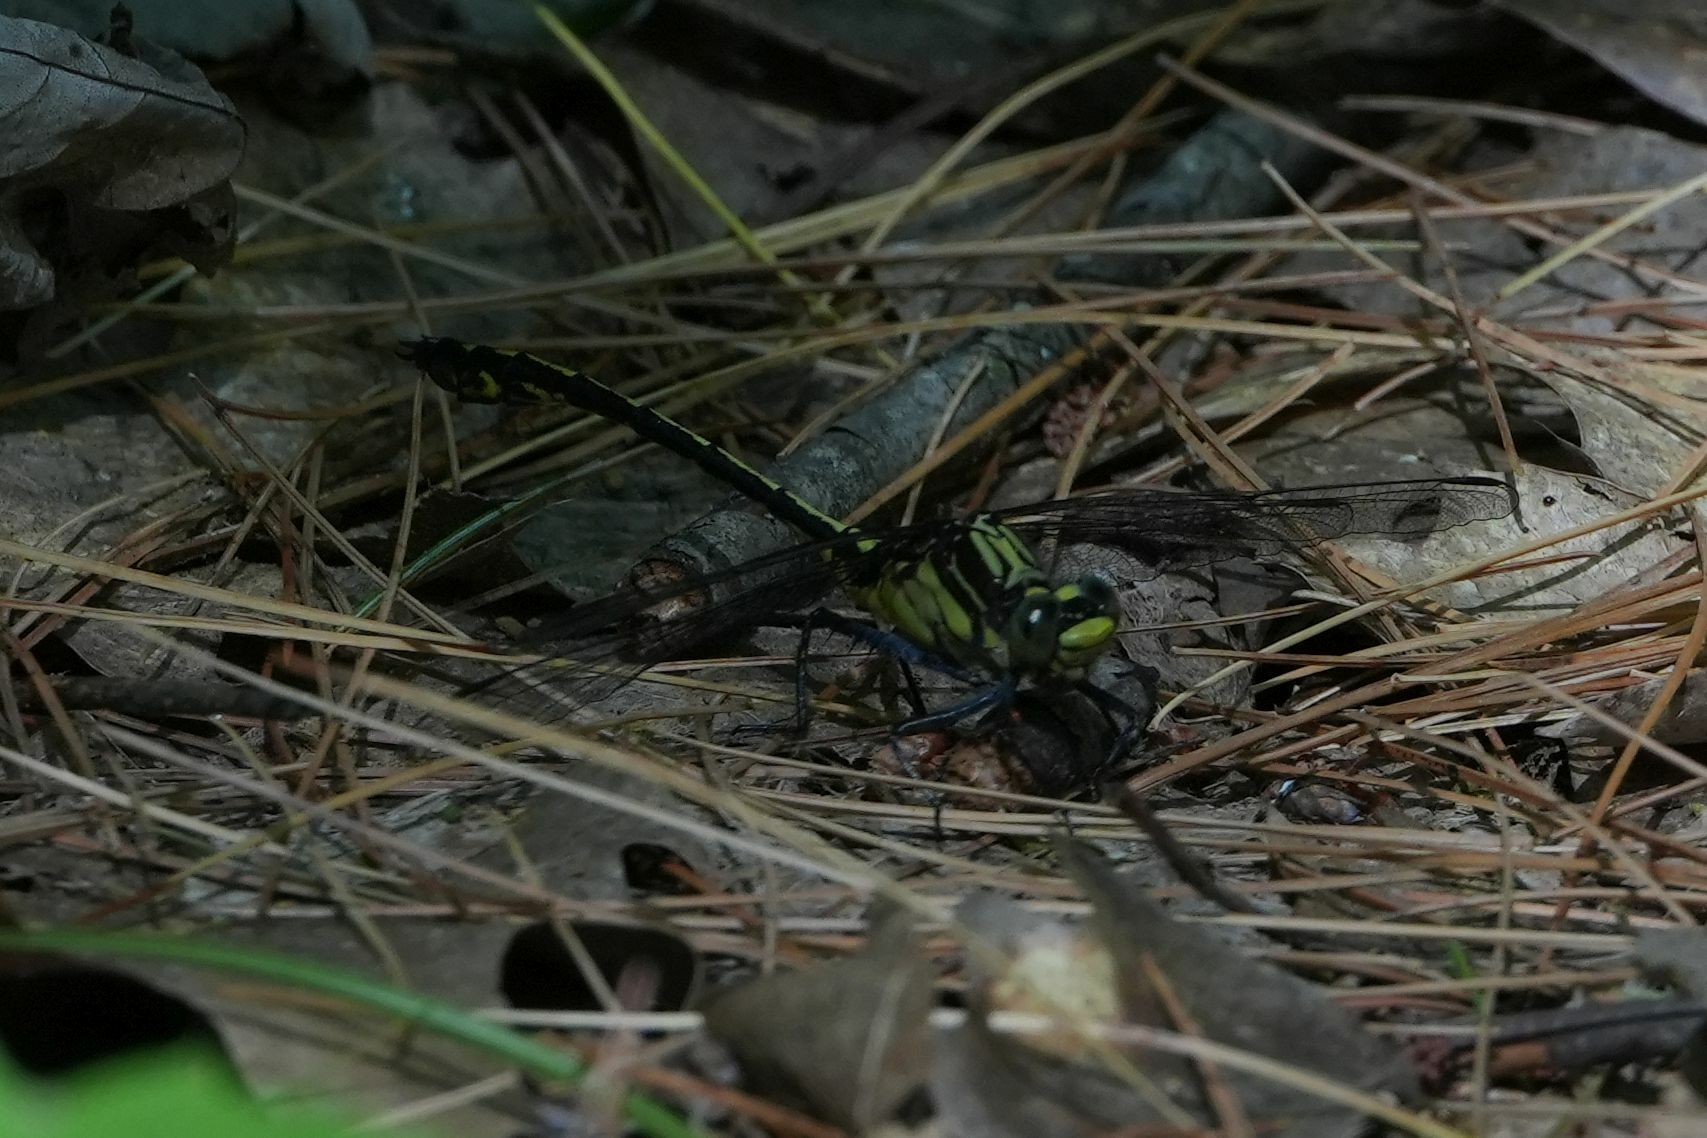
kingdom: Animalia
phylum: Arthropoda
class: Insecta
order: Odonata
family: Gomphidae
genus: Dromogomphus
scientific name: Dromogomphus spinosus
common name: Black-shouldered spinyleg
